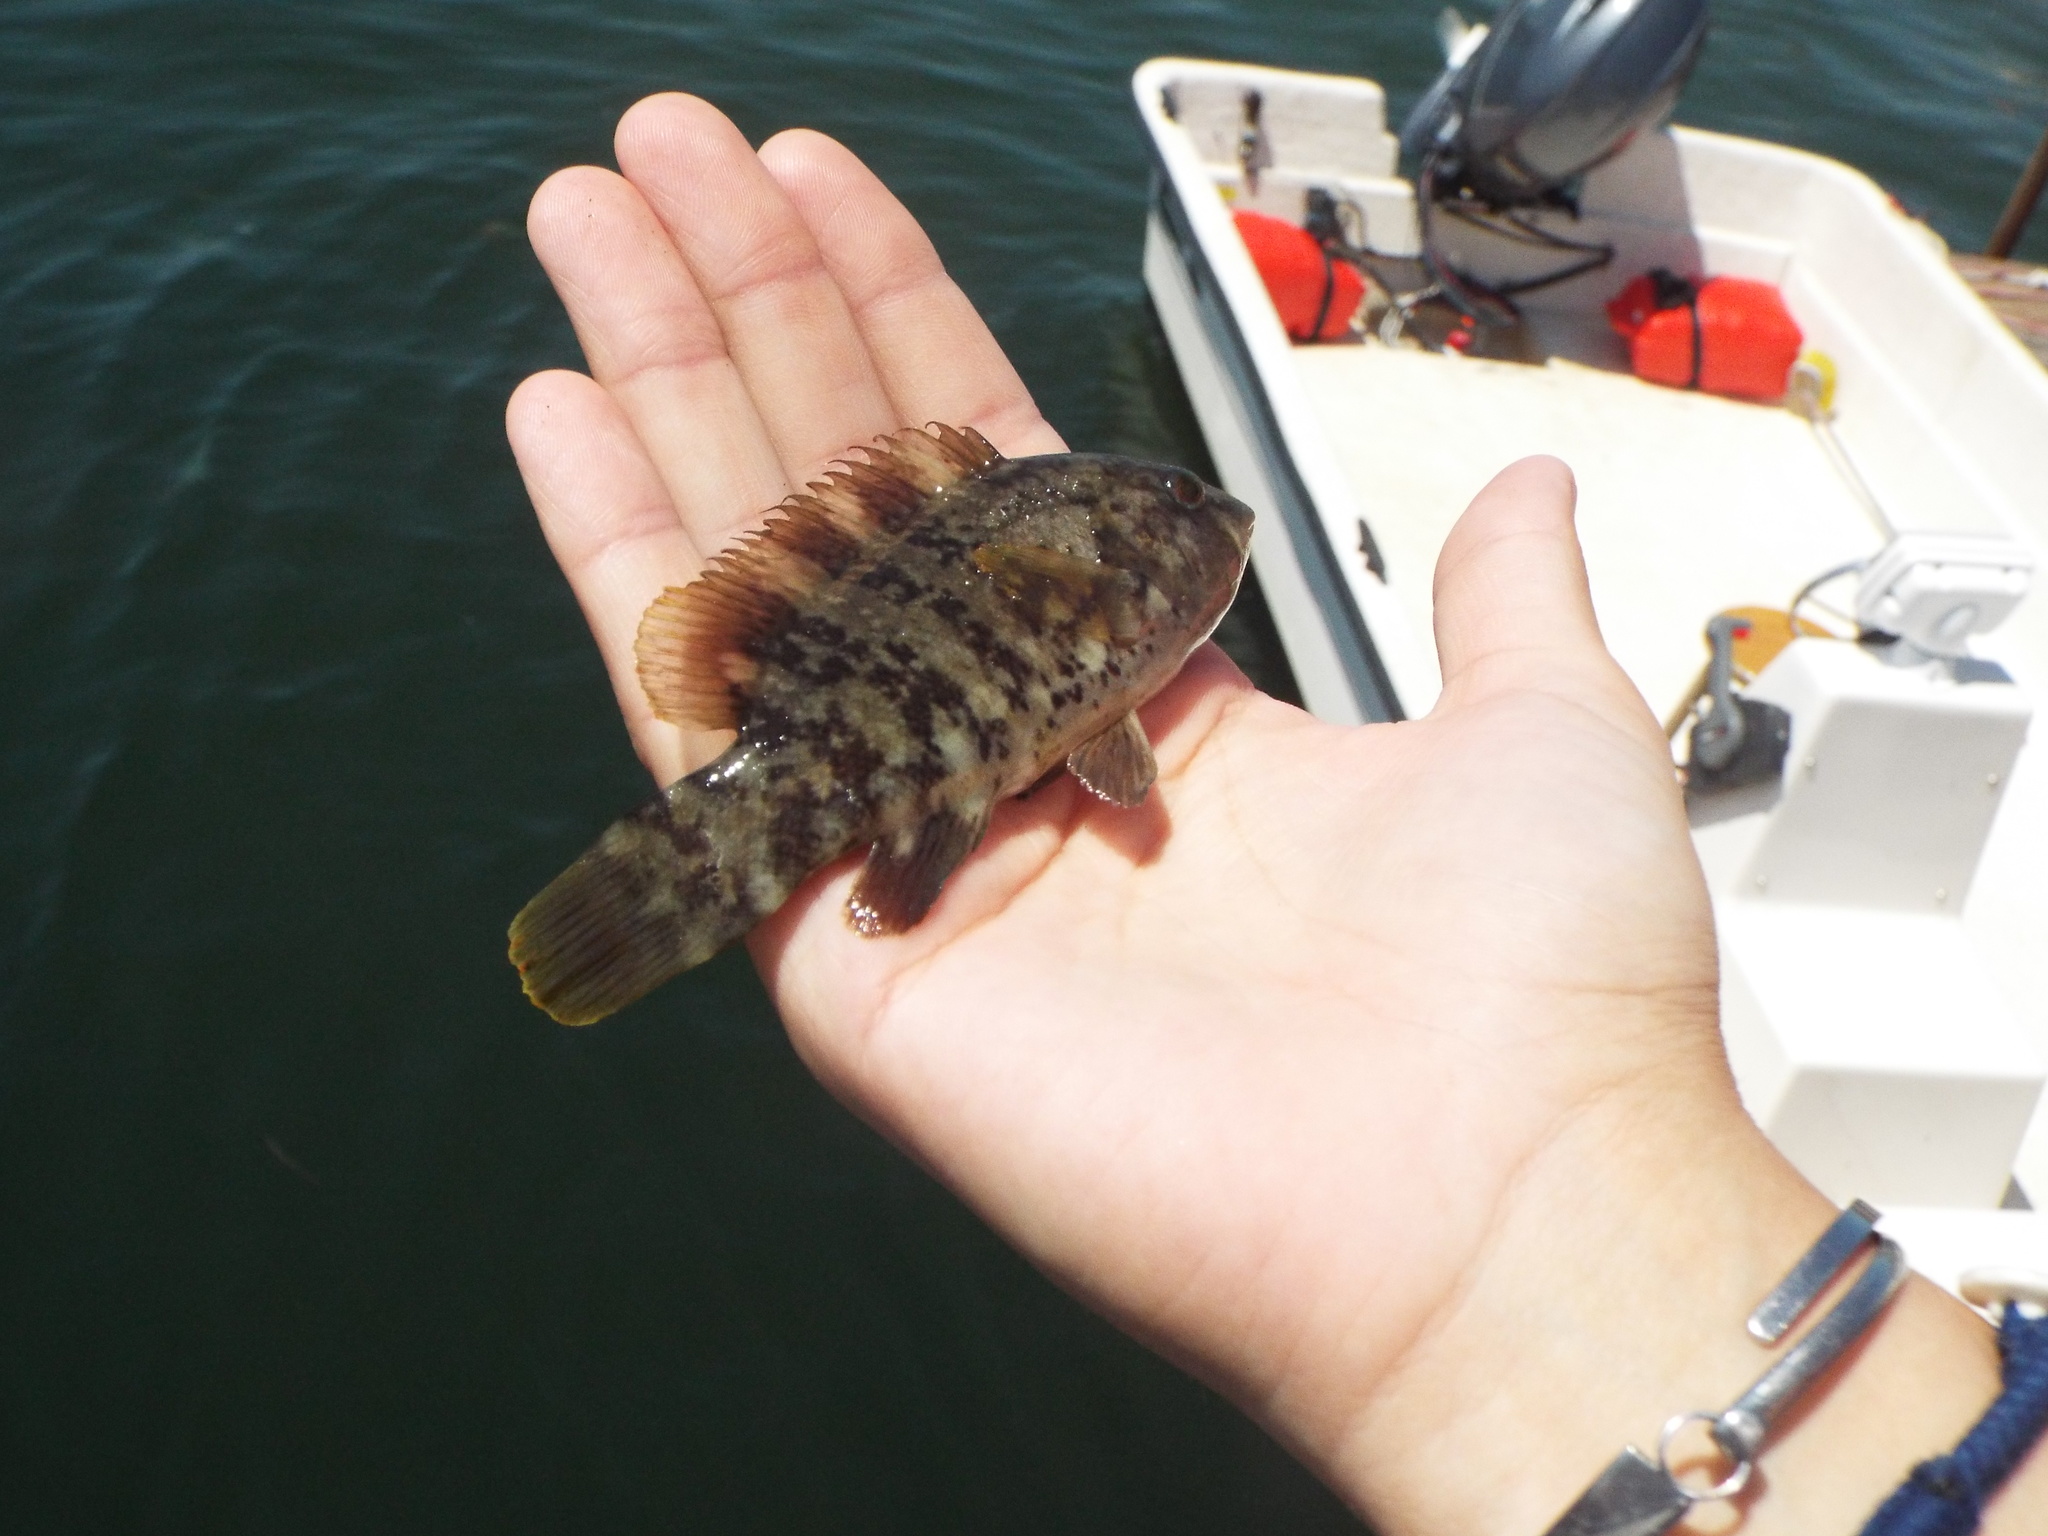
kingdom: Animalia
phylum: Chordata
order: Perciformes
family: Labridae
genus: Tautoga
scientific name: Tautoga onitis
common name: Tautog
